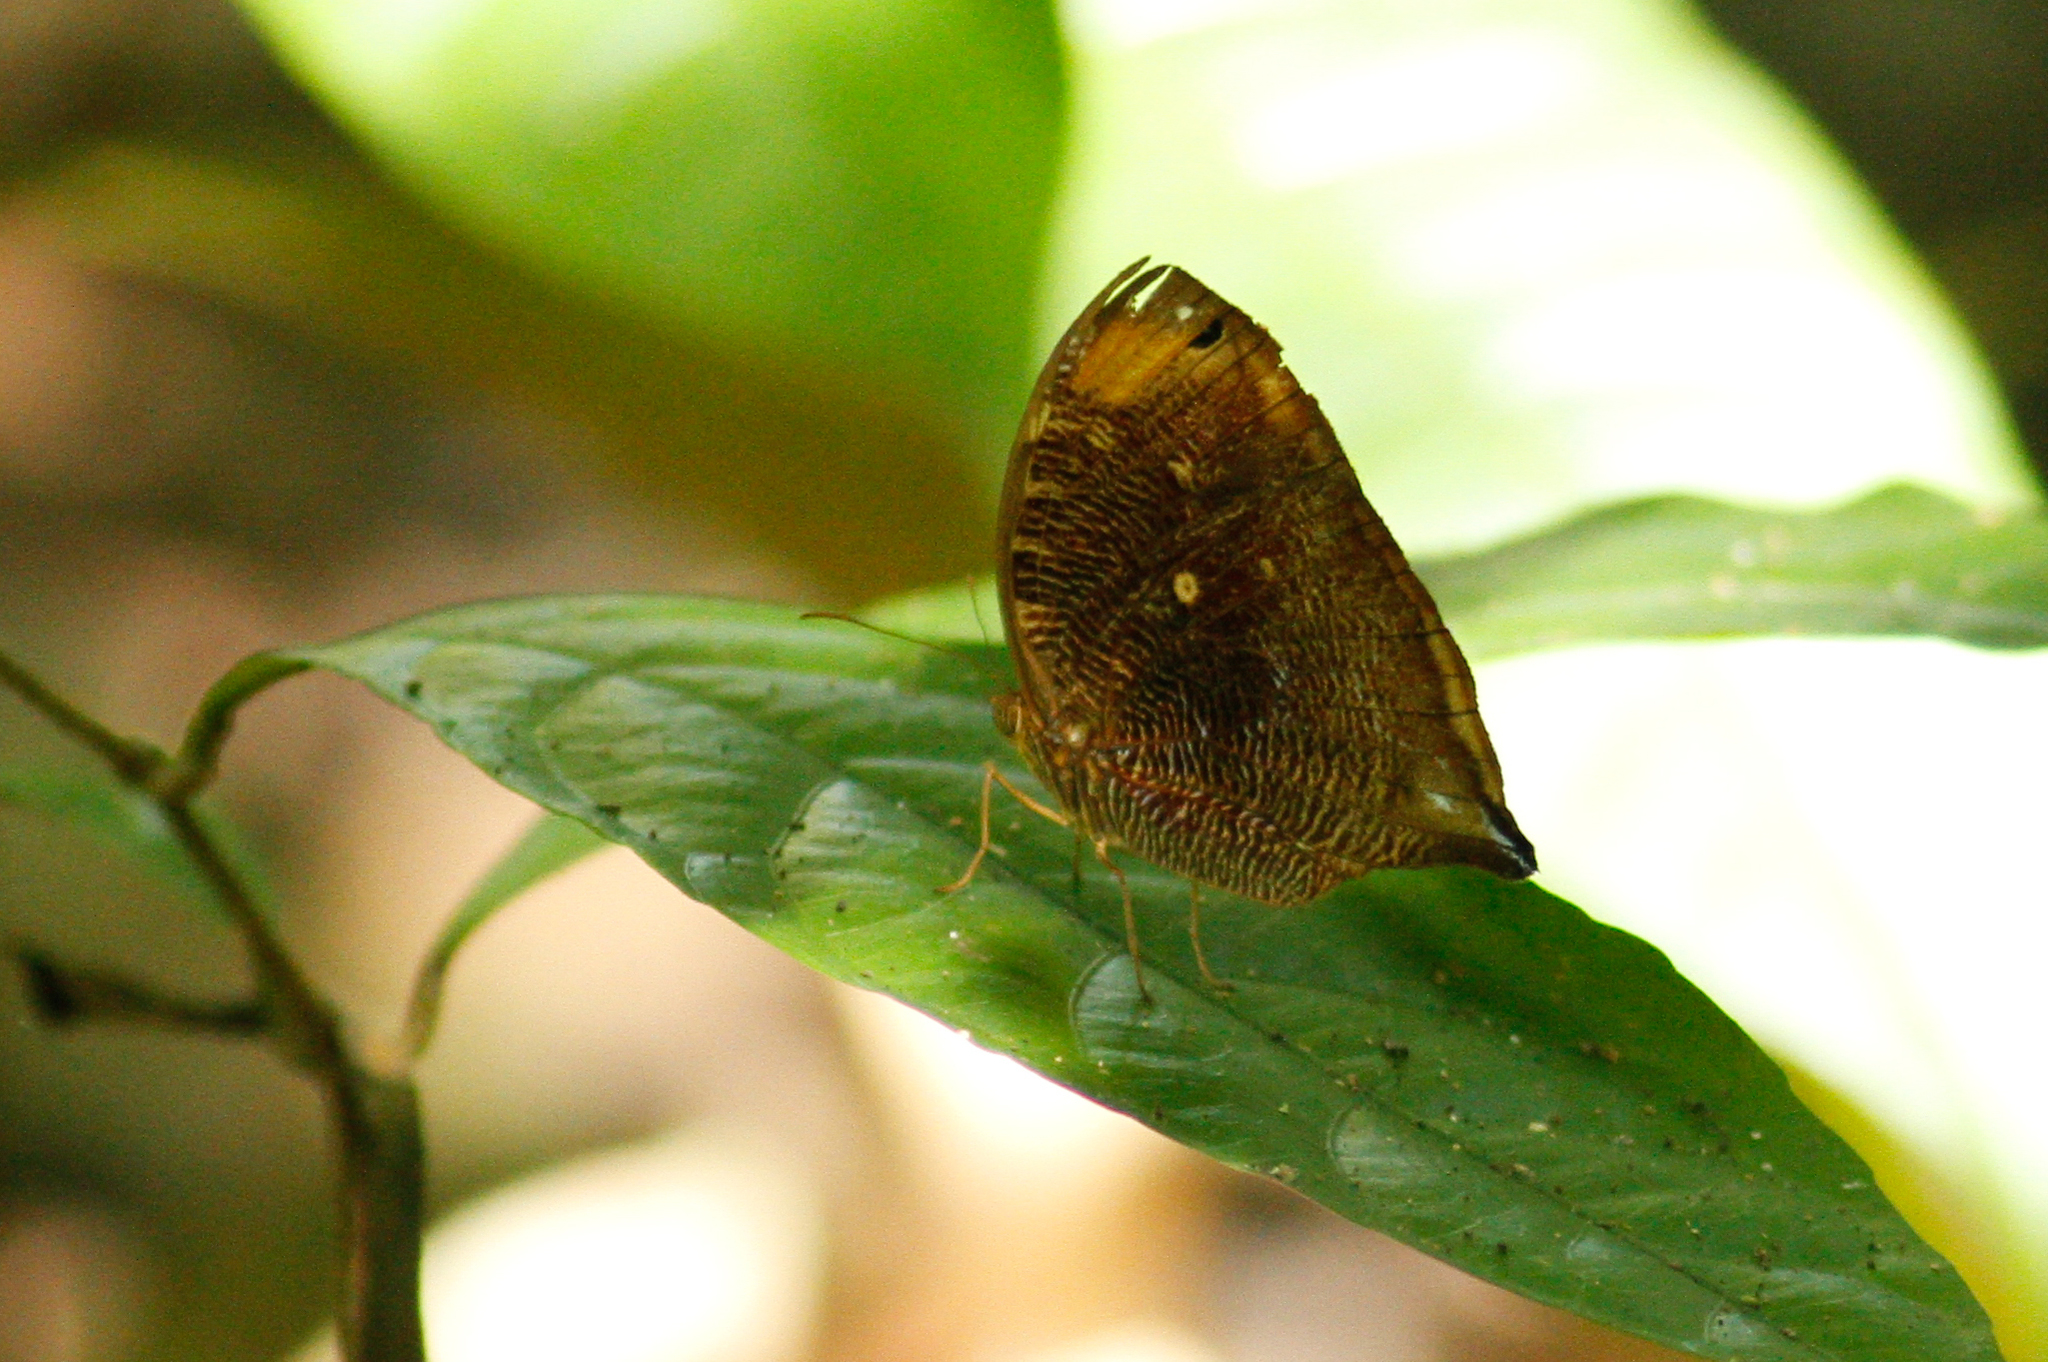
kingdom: Animalia
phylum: Arthropoda
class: Insecta
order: Lepidoptera
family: Nymphalidae
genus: Bia
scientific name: Bia decaerulea
